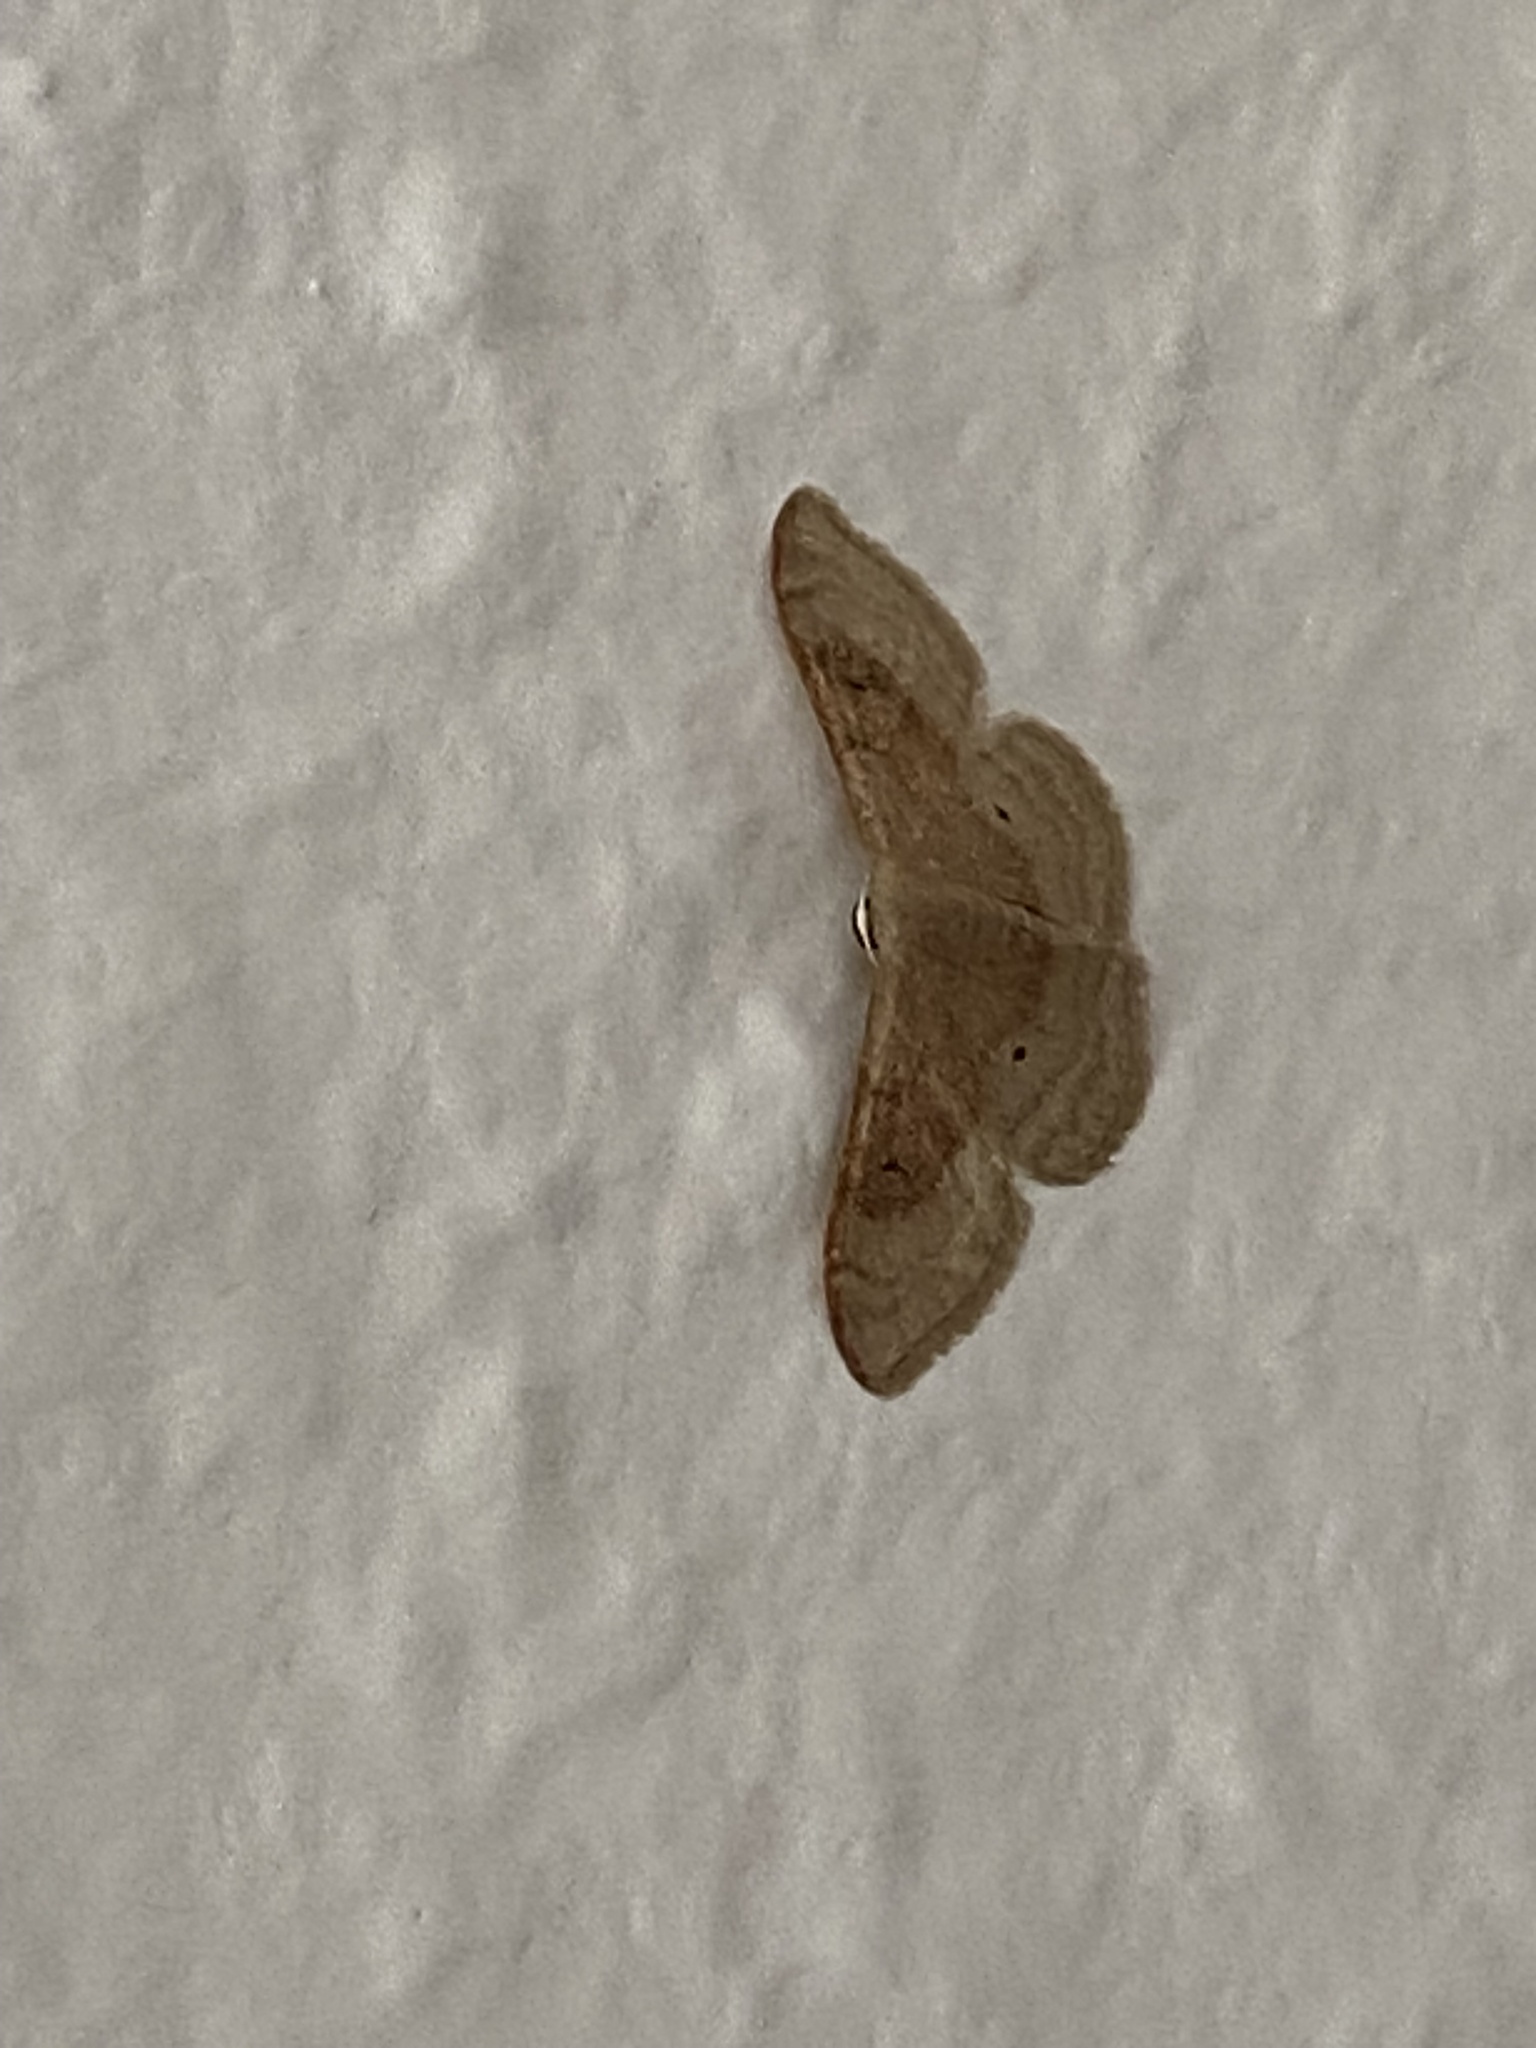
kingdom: Animalia
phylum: Arthropoda
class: Insecta
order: Lepidoptera
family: Geometridae
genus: Idaea
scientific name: Idaea degeneraria
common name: Portland ribbon wave
